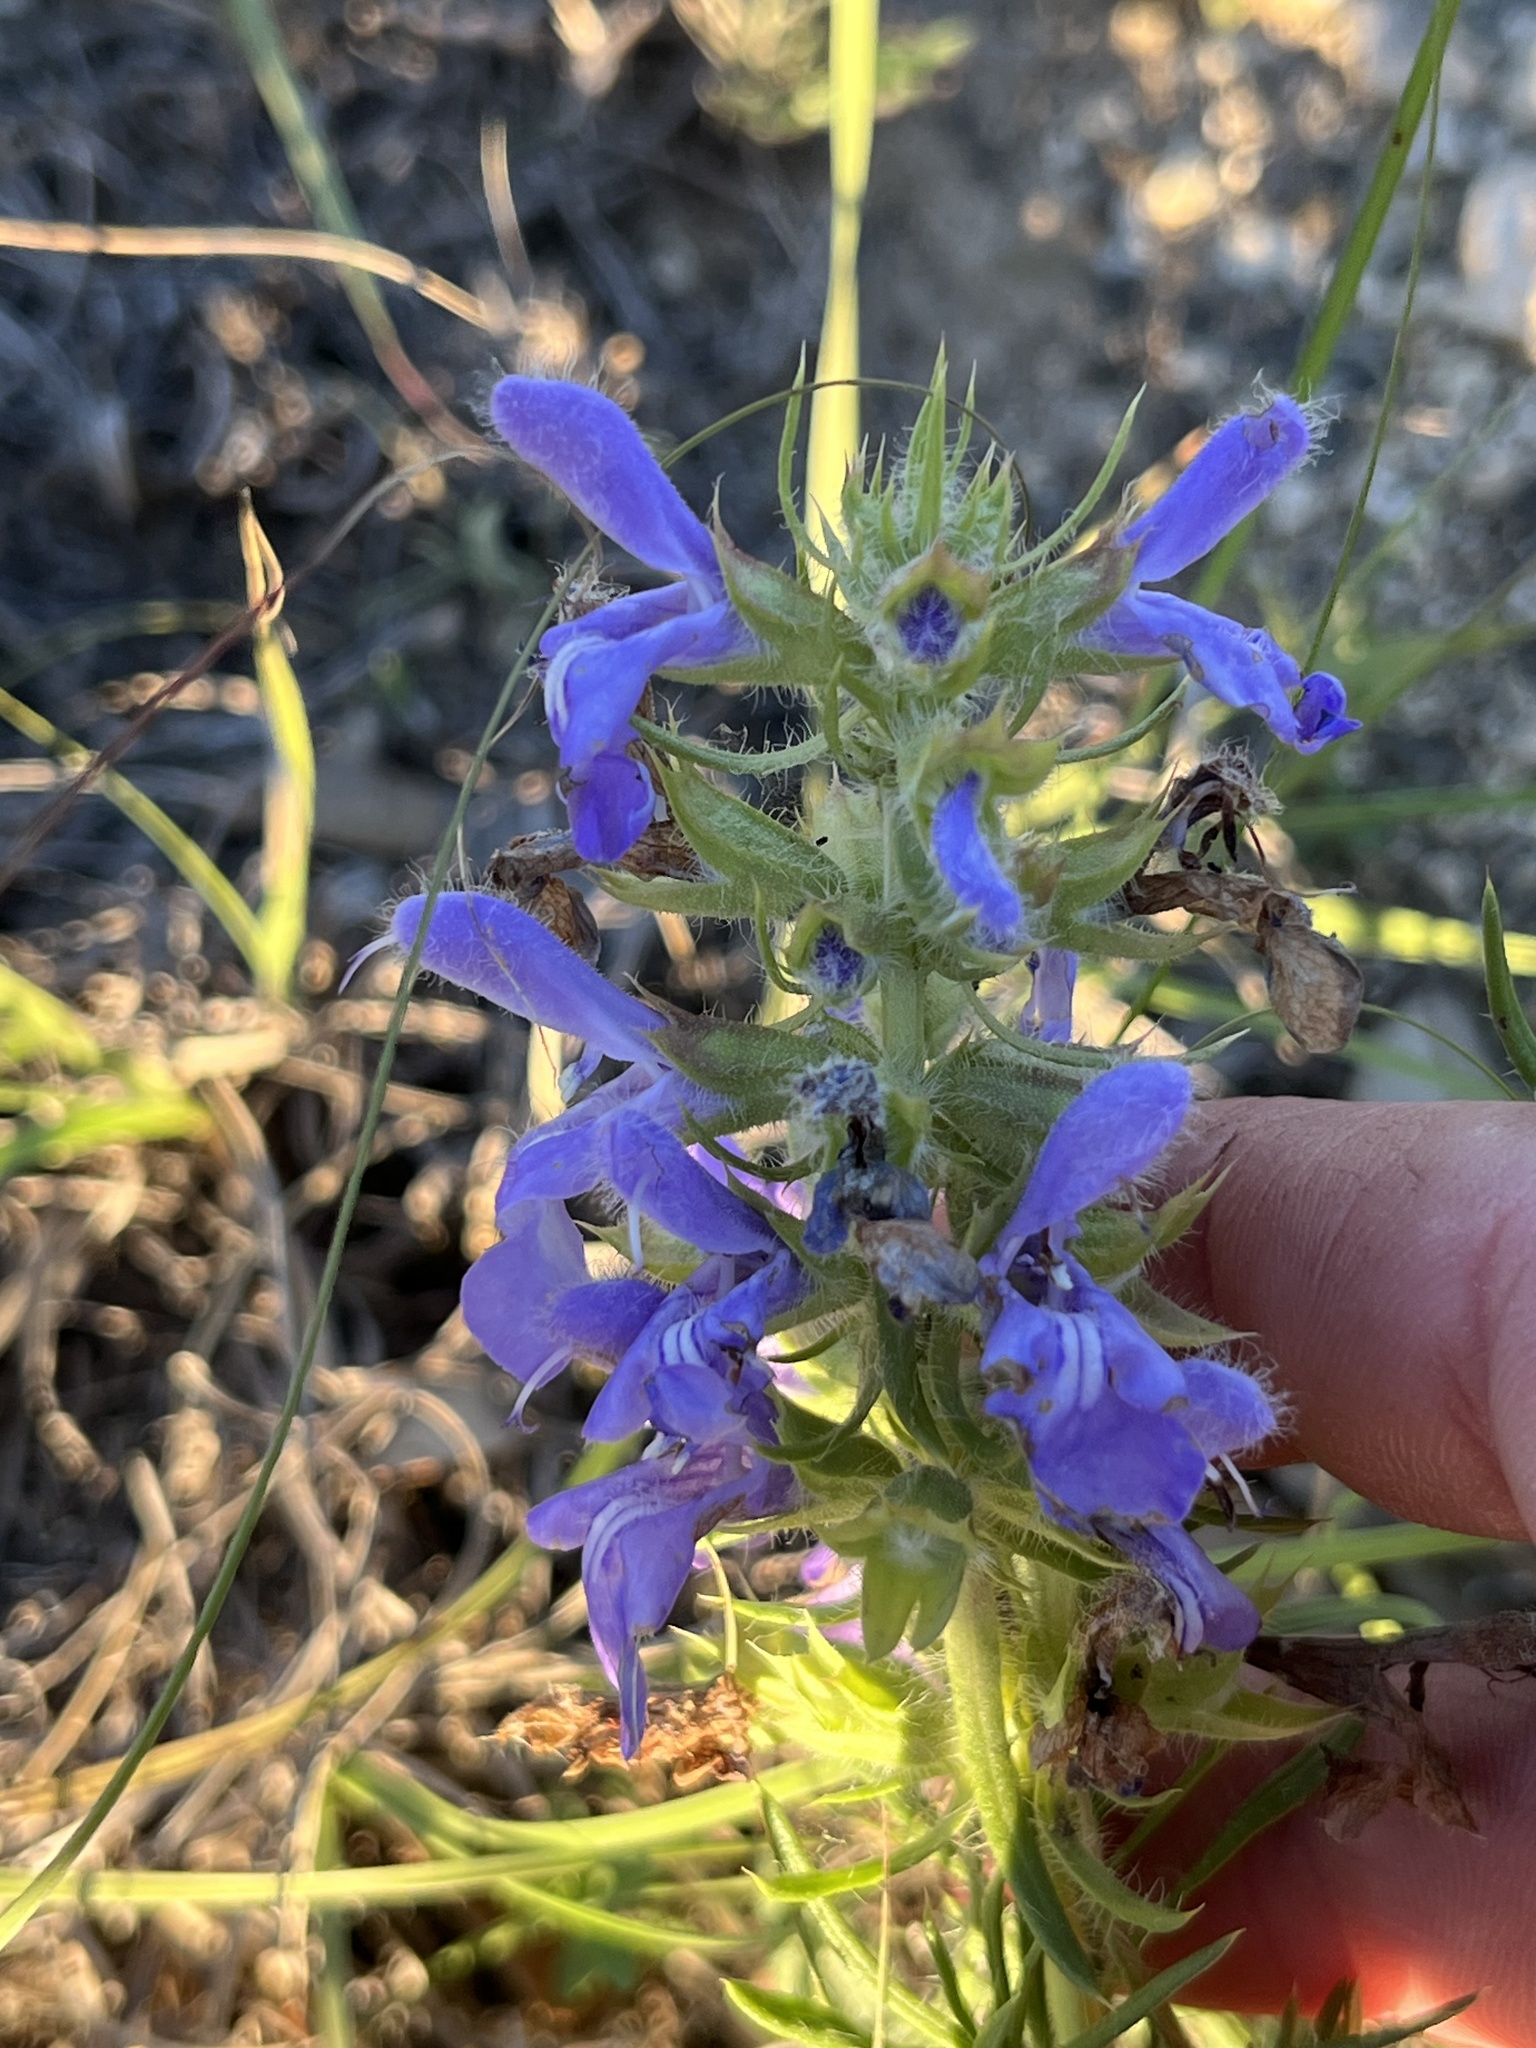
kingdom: Plantae
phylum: Tracheophyta
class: Magnoliopsida
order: Lamiales
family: Lamiaceae
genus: Salvia
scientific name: Salvia engelmannii
